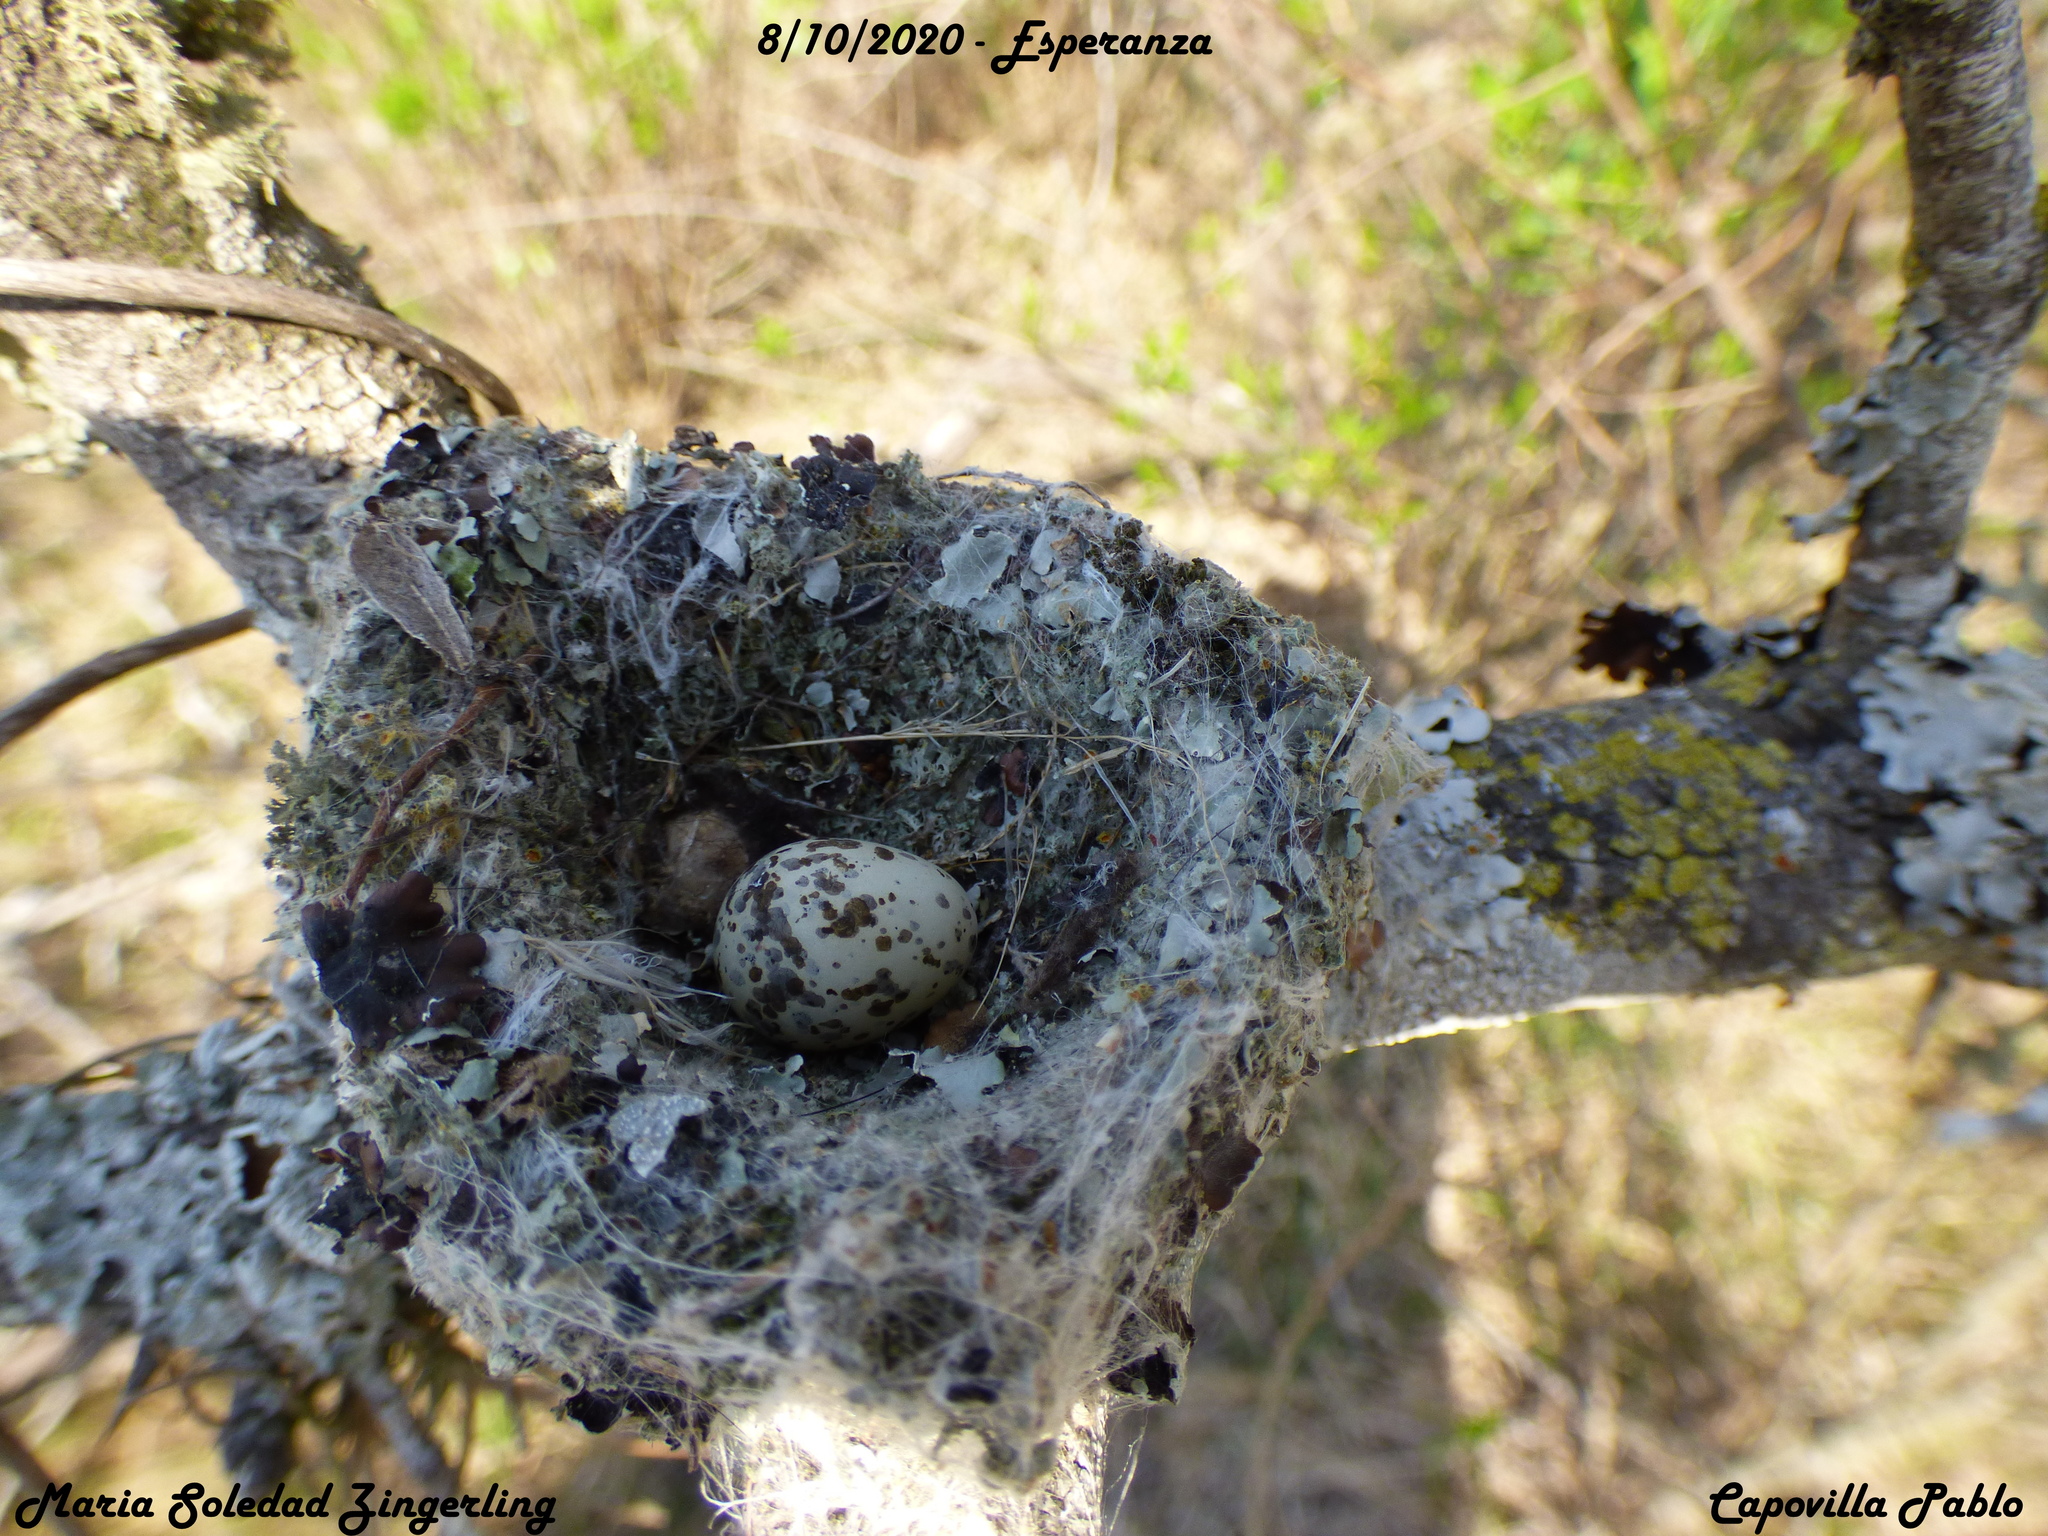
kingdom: Animalia
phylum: Chordata
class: Aves
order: Passeriformes
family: Tyrannidae
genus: Sublegatus
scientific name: Sublegatus modestus
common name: Southern scrub flycatcher
